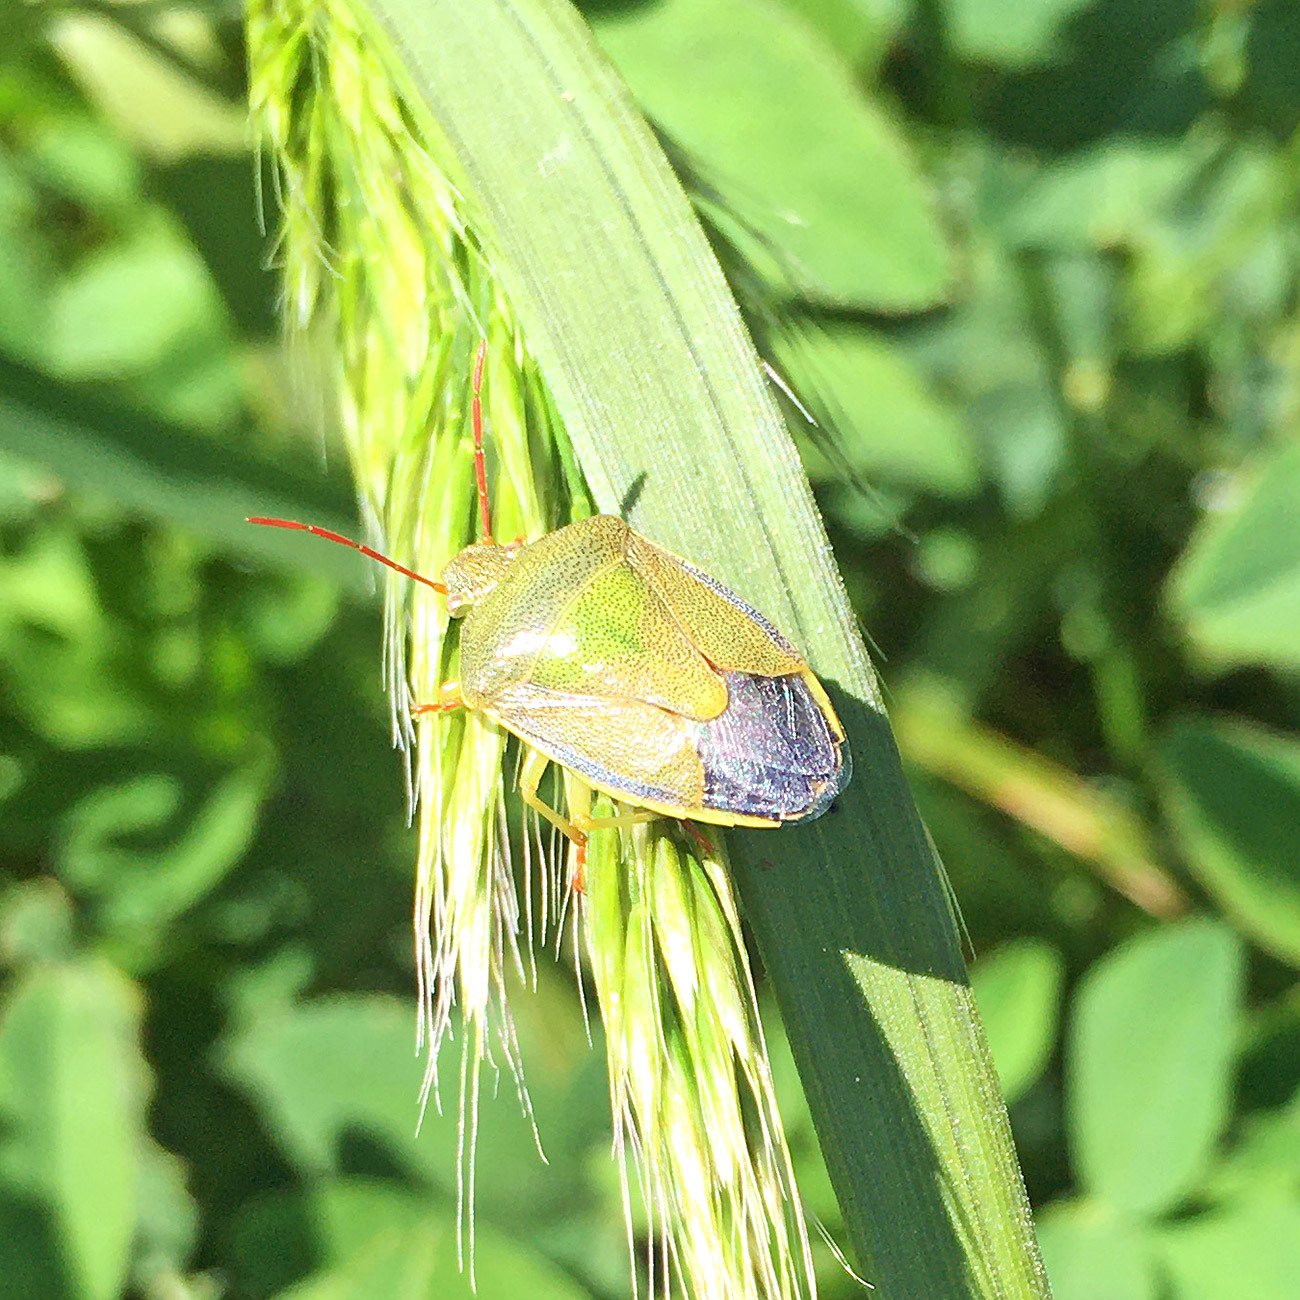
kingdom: Animalia
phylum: Arthropoda
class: Insecta
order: Hemiptera
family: Pentatomidae
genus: Piezodorus
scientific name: Piezodorus lituratus
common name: Stink bug
